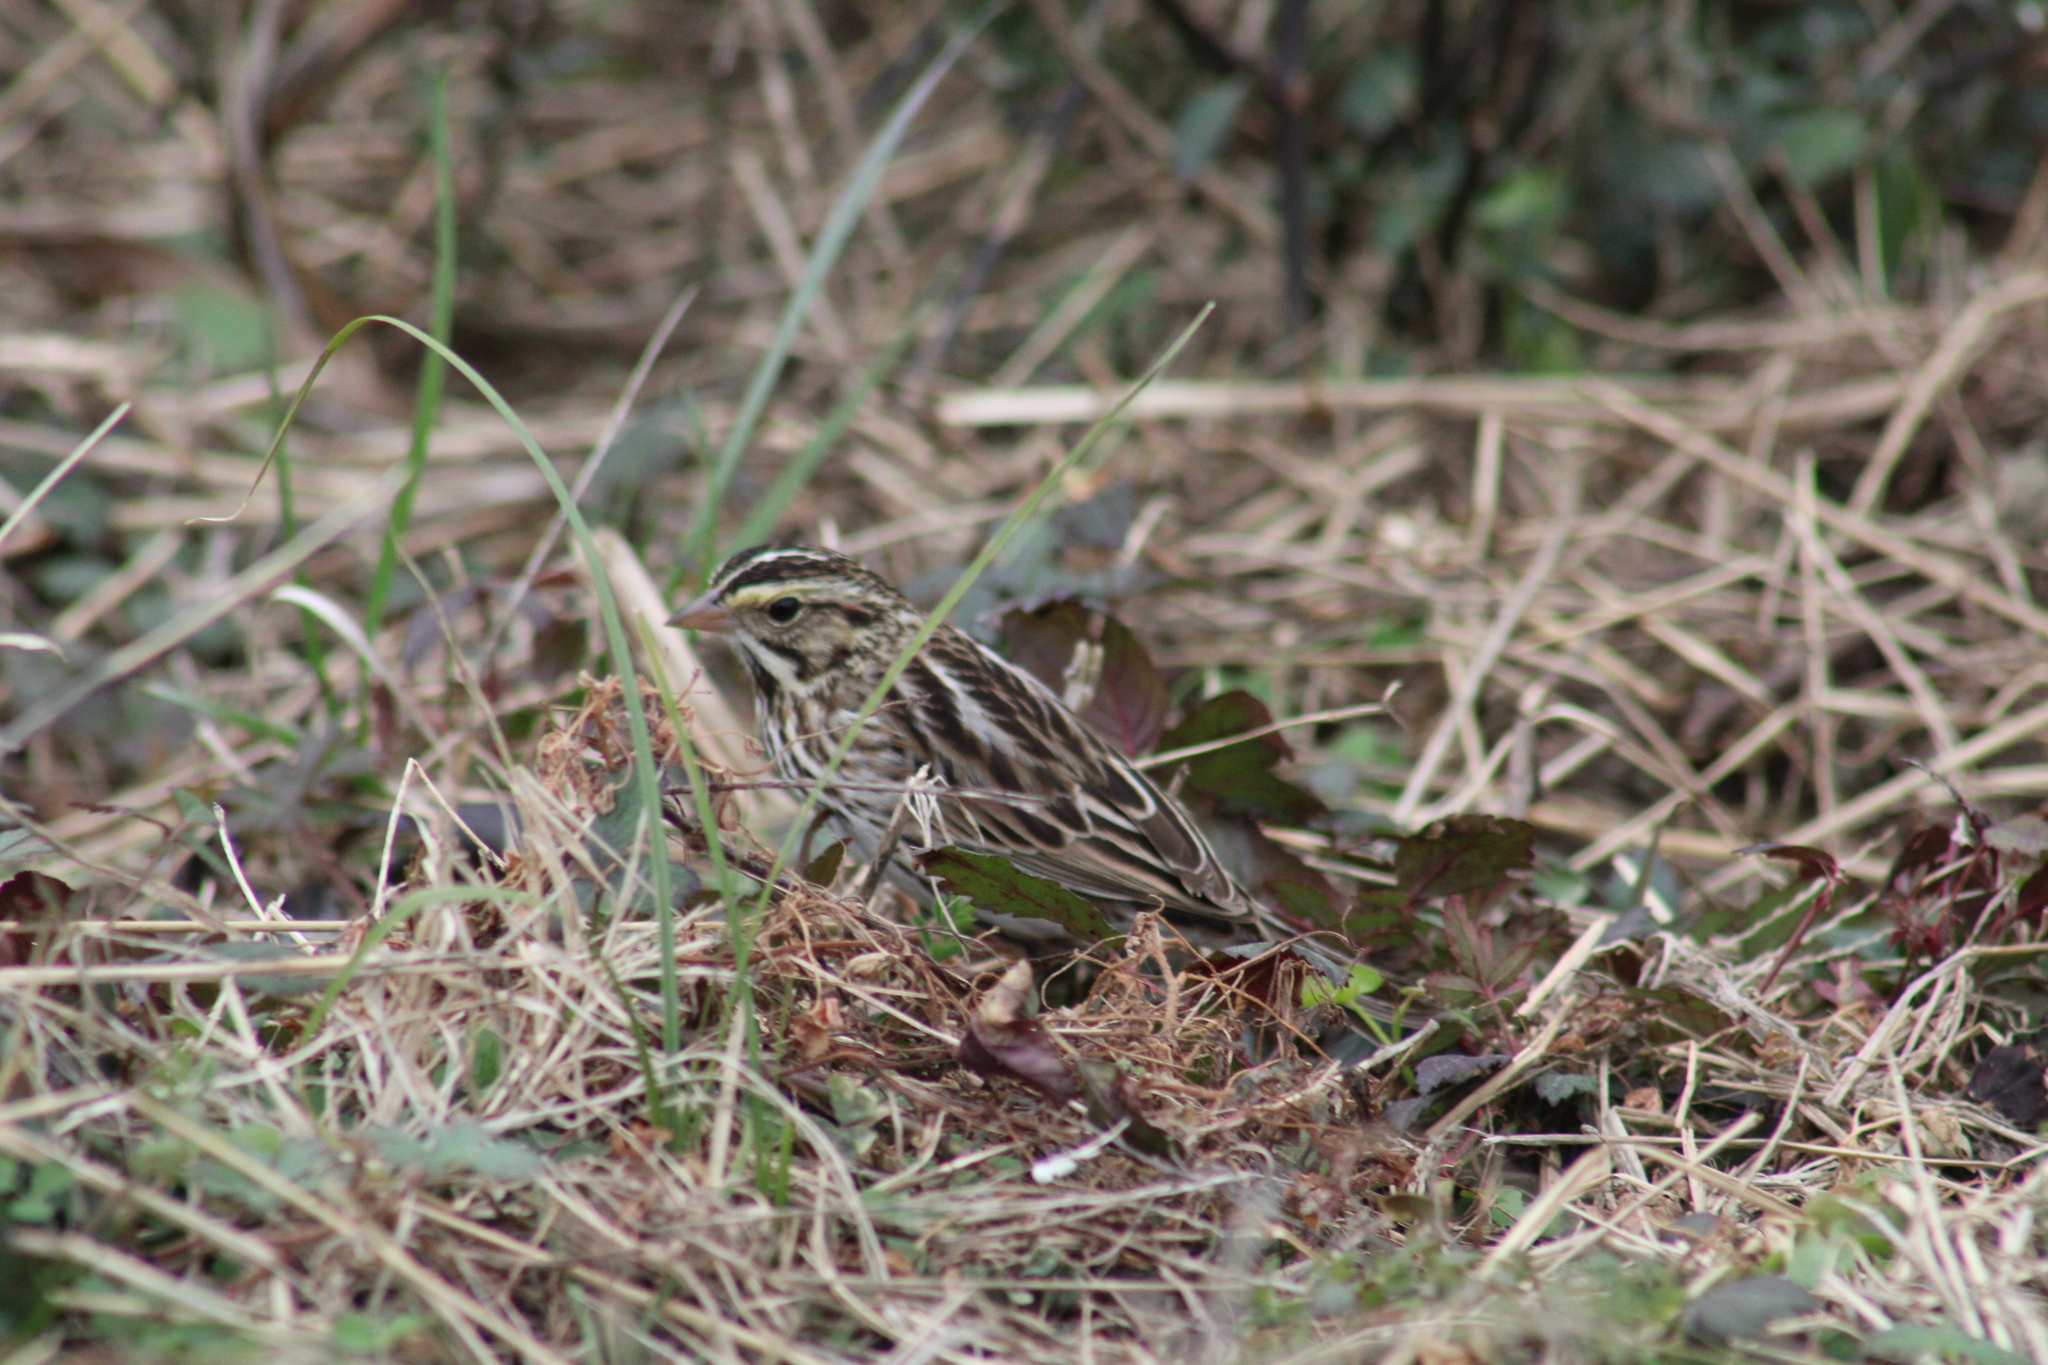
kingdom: Animalia
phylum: Chordata
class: Aves
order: Passeriformes
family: Passerellidae
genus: Passerculus
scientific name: Passerculus sandwichensis
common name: Savannah sparrow
